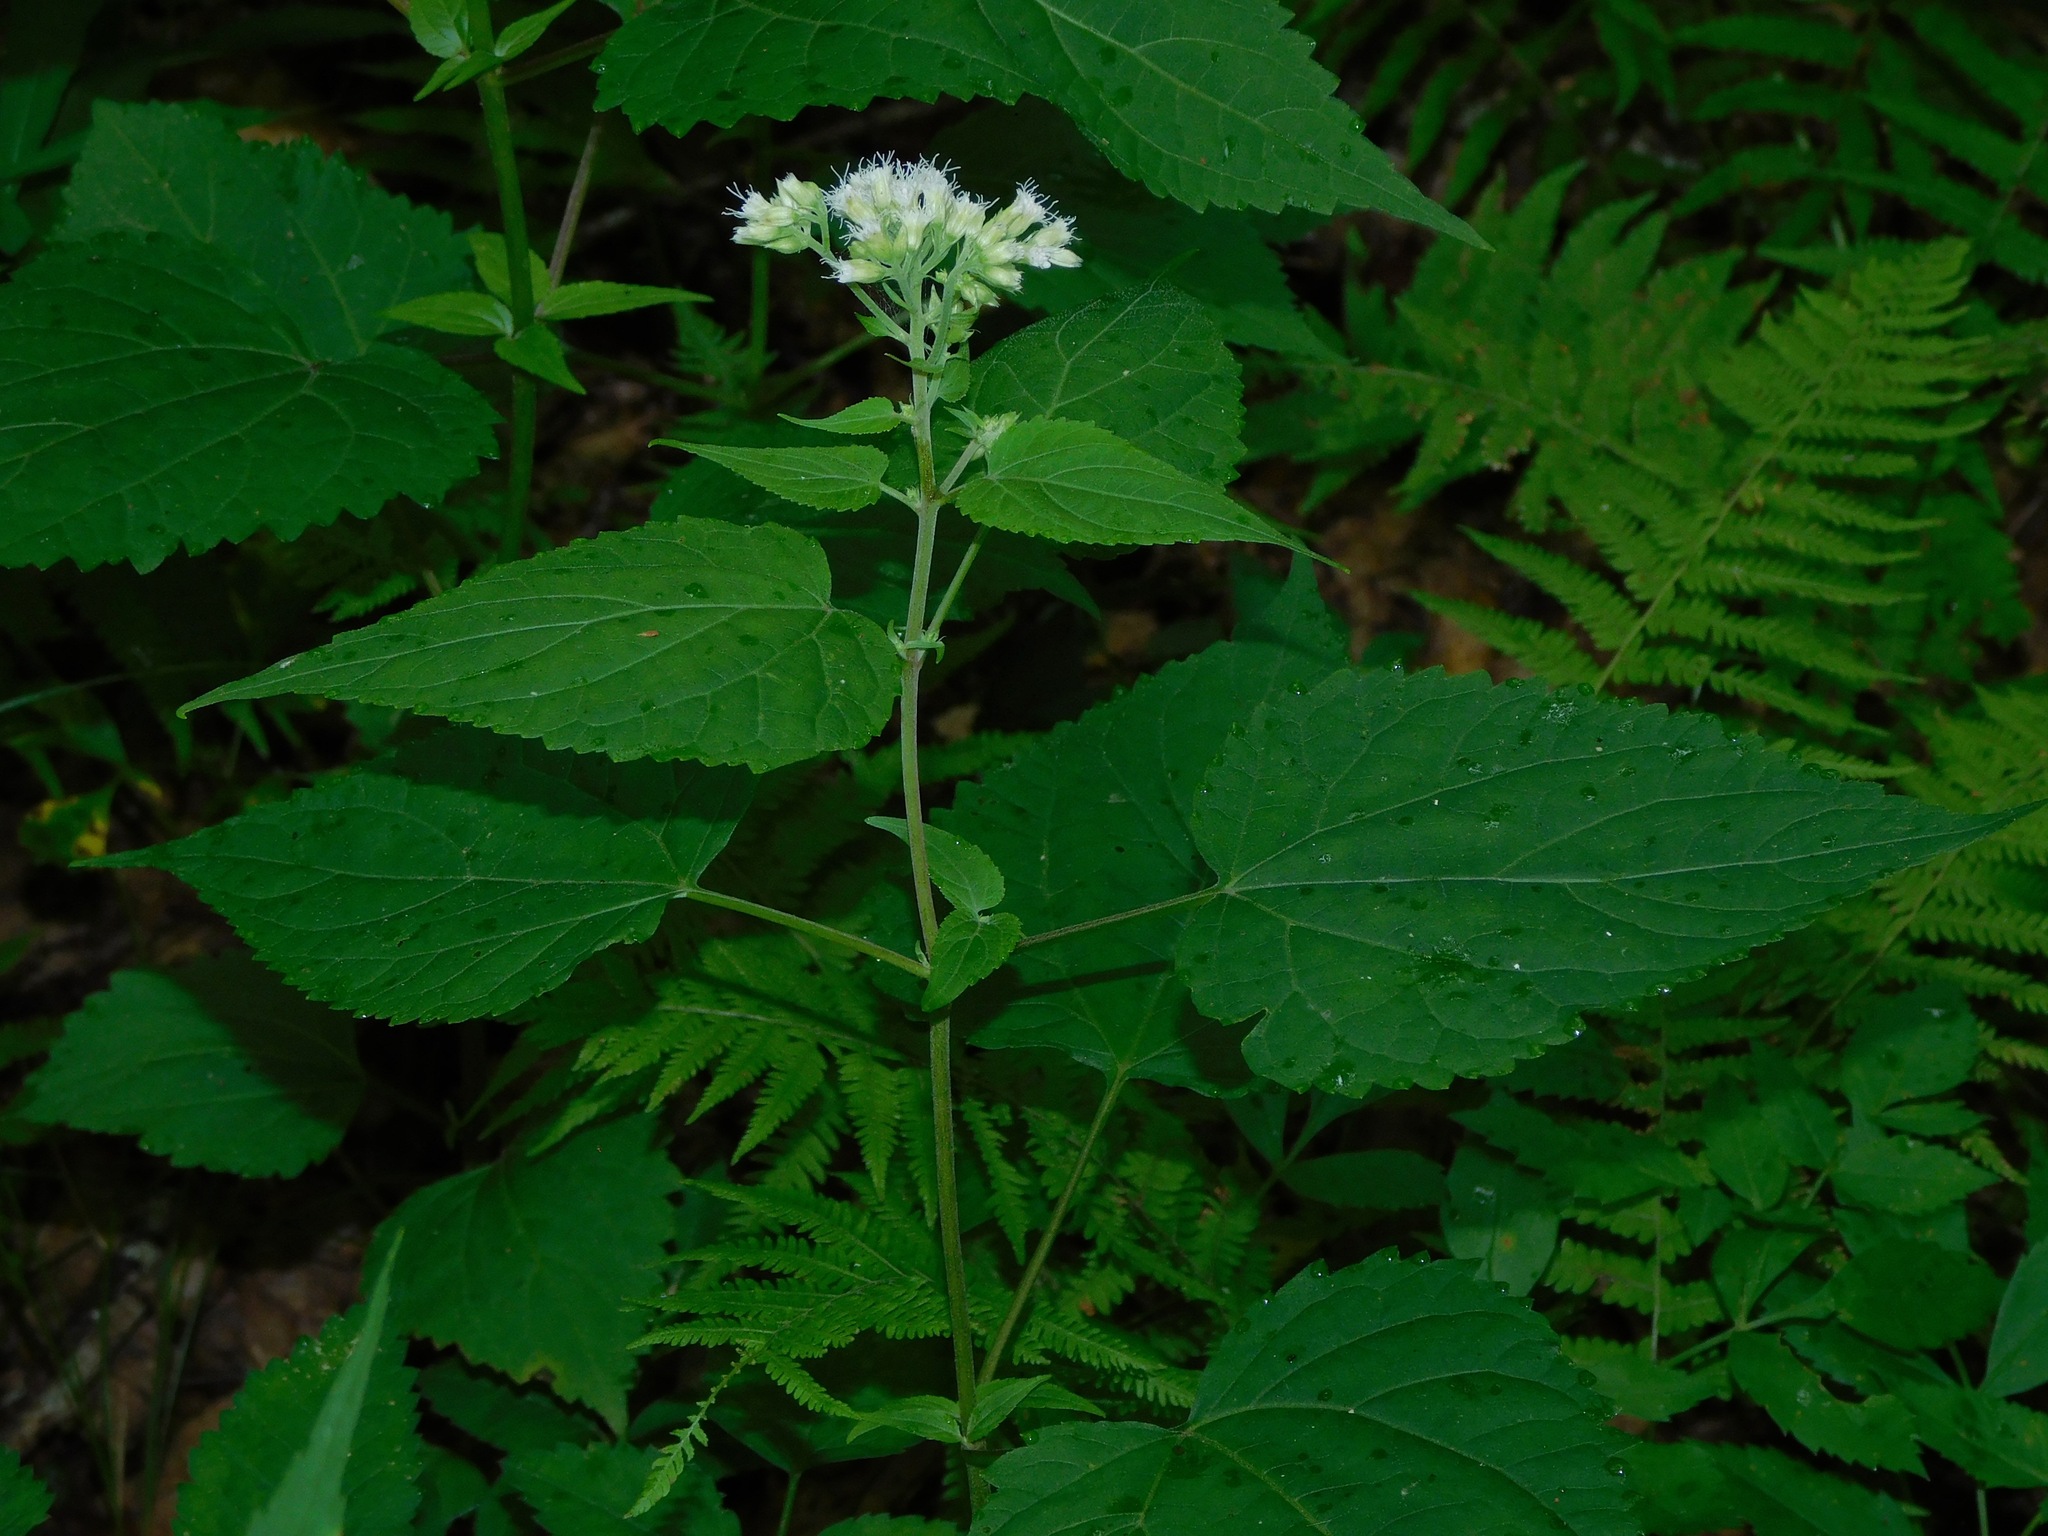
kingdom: Plantae
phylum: Tracheophyta
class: Magnoliopsida
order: Asterales
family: Asteraceae
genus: Ageratina
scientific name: Ageratina roanensis
